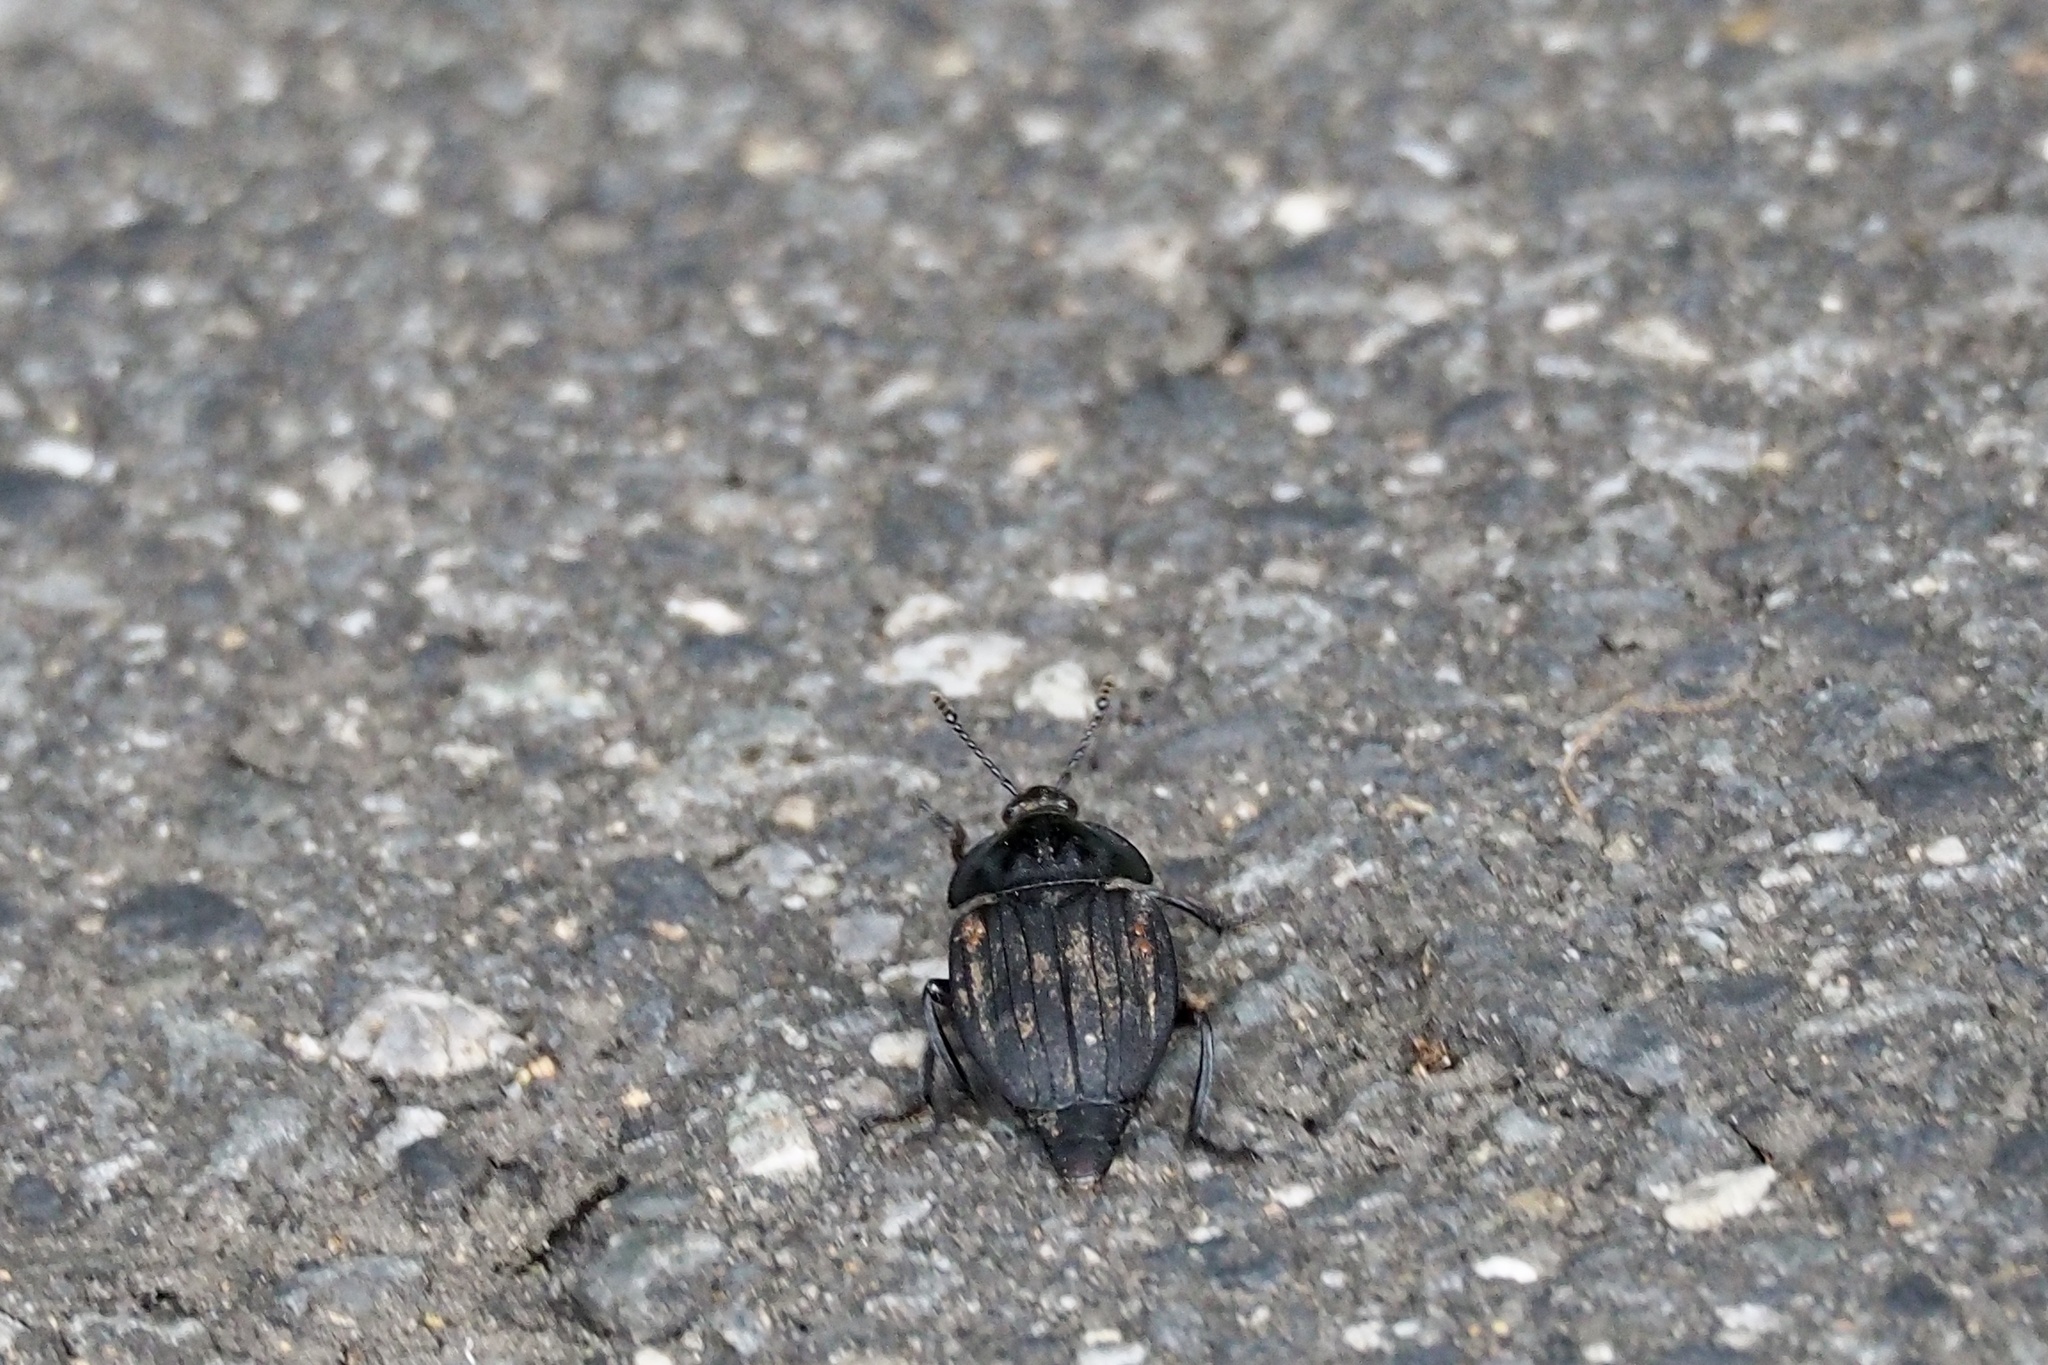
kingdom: Animalia
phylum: Arthropoda
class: Insecta
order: Coleoptera
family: Staphylinidae
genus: Necrophila
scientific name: Necrophila japonica
